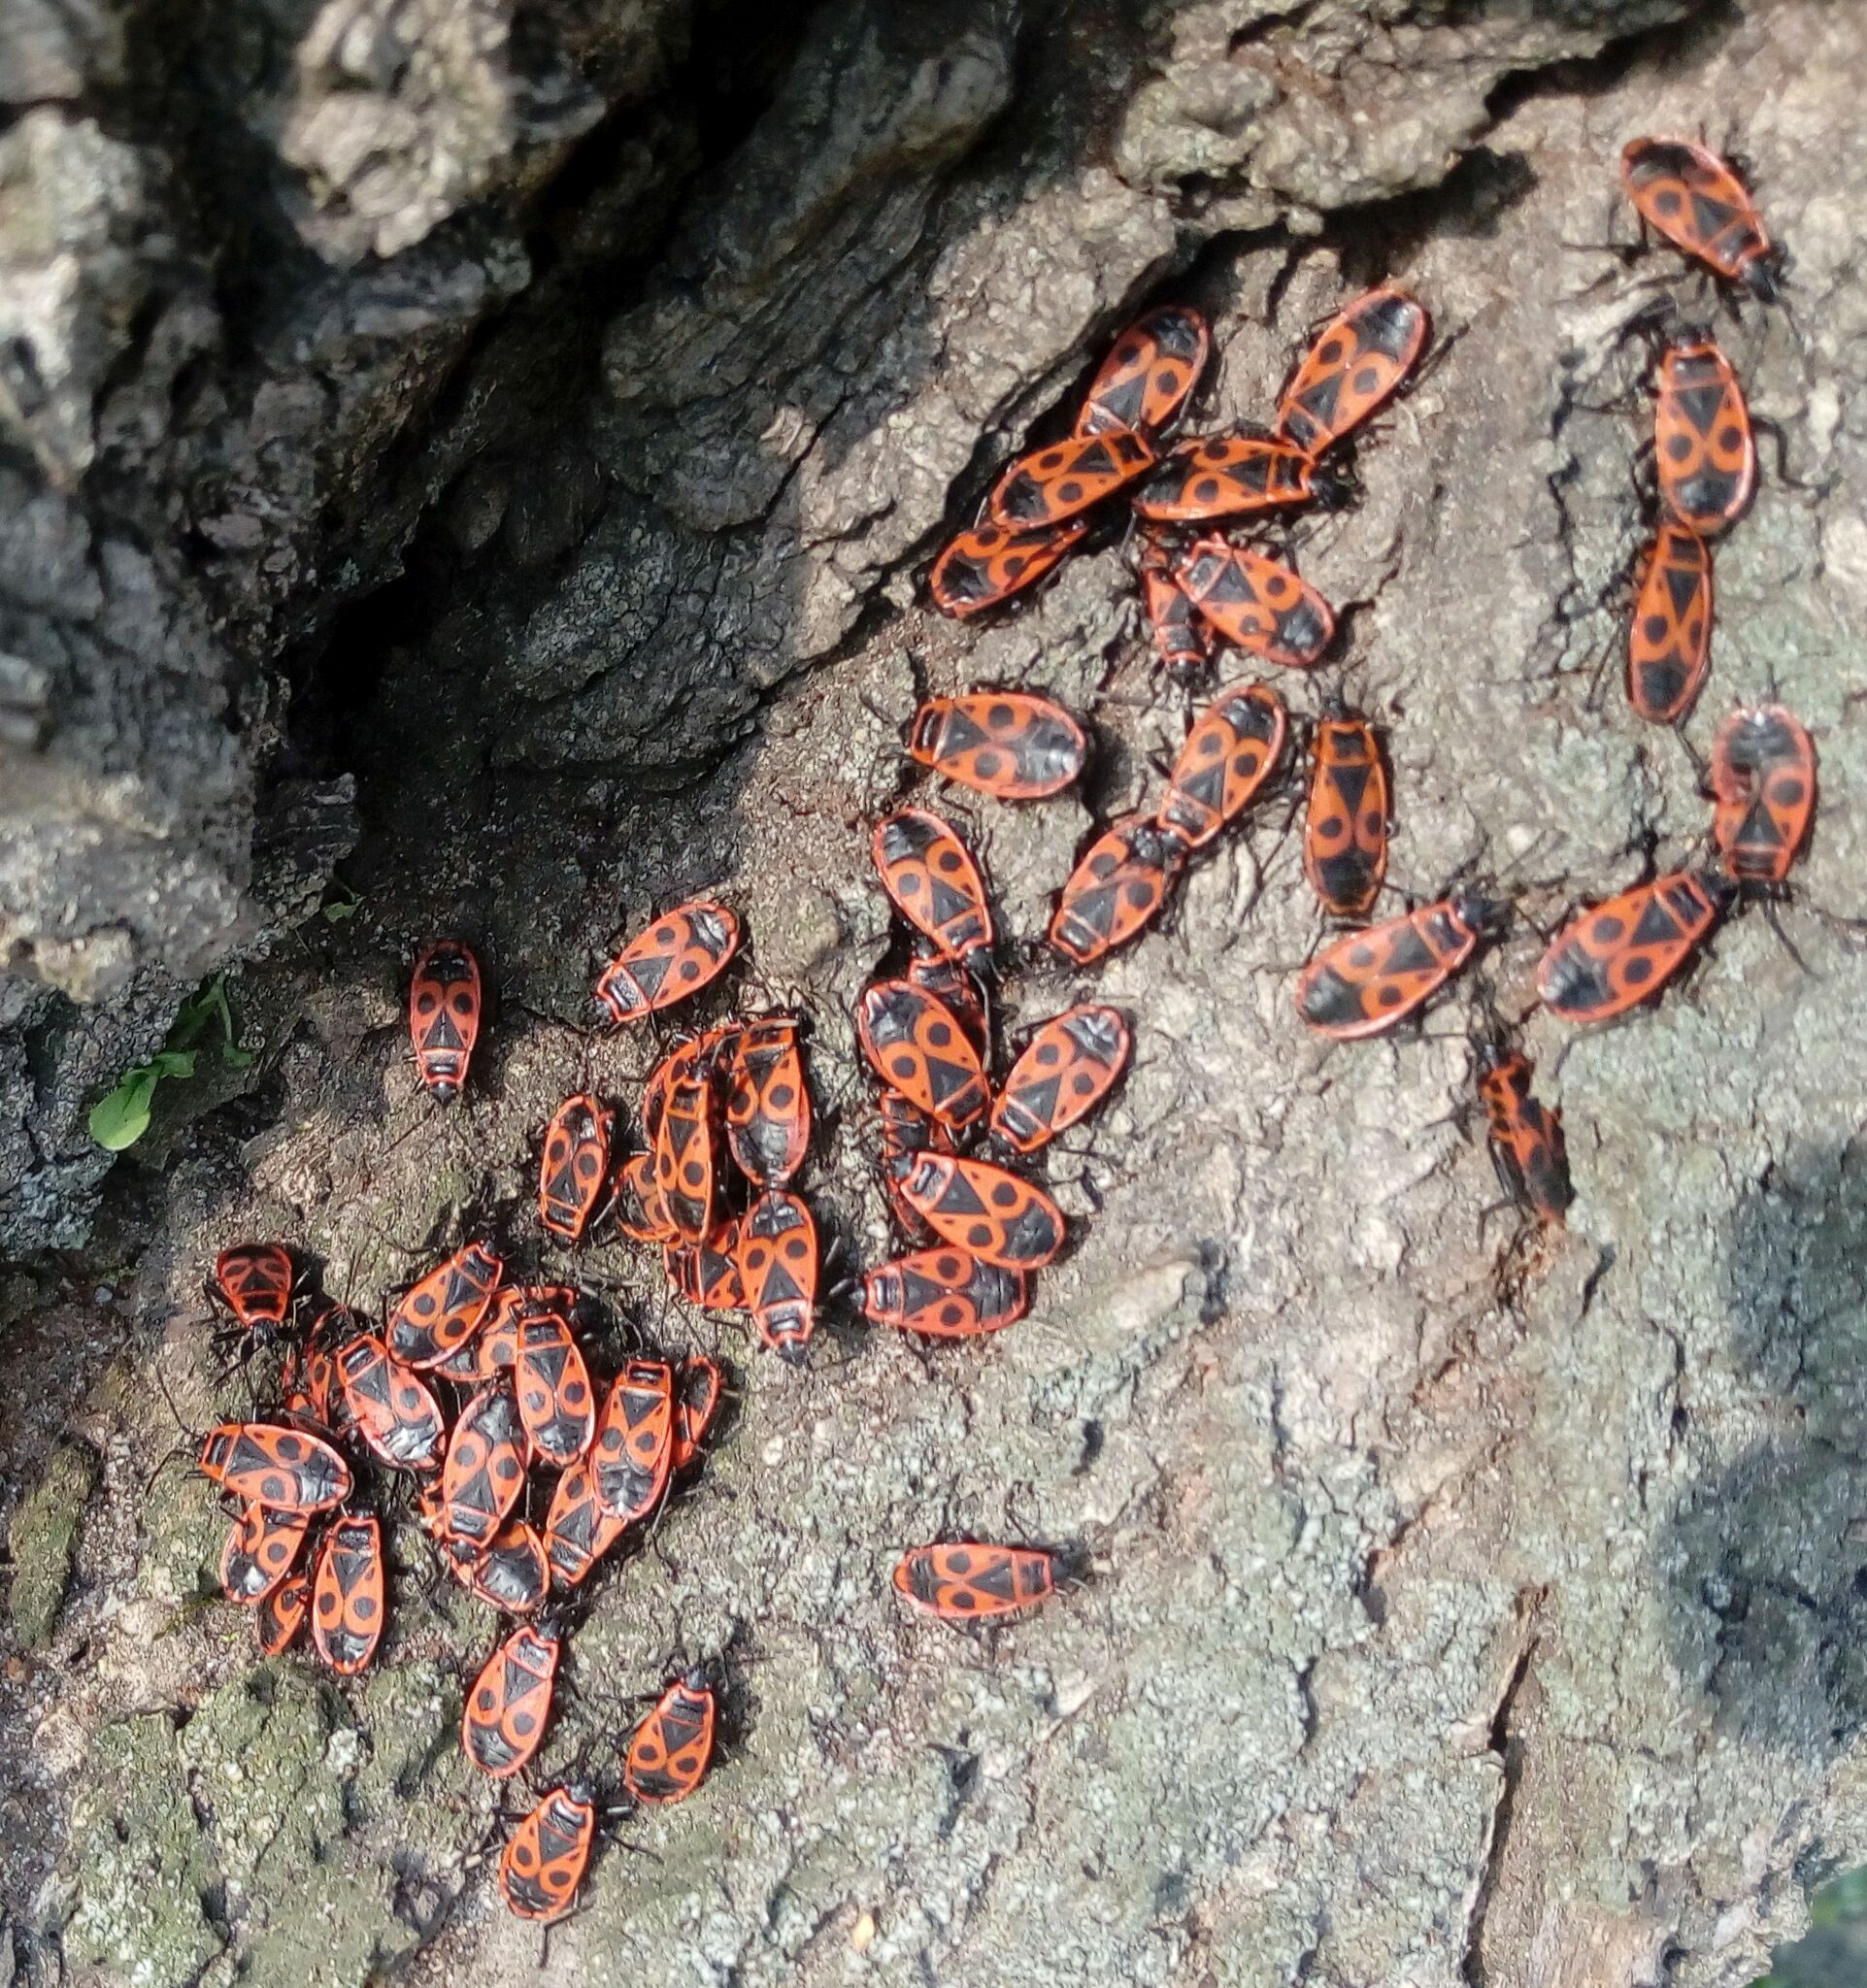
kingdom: Animalia
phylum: Arthropoda
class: Insecta
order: Hemiptera
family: Pyrrhocoridae
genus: Pyrrhocoris
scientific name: Pyrrhocoris apterus
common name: Firebug
